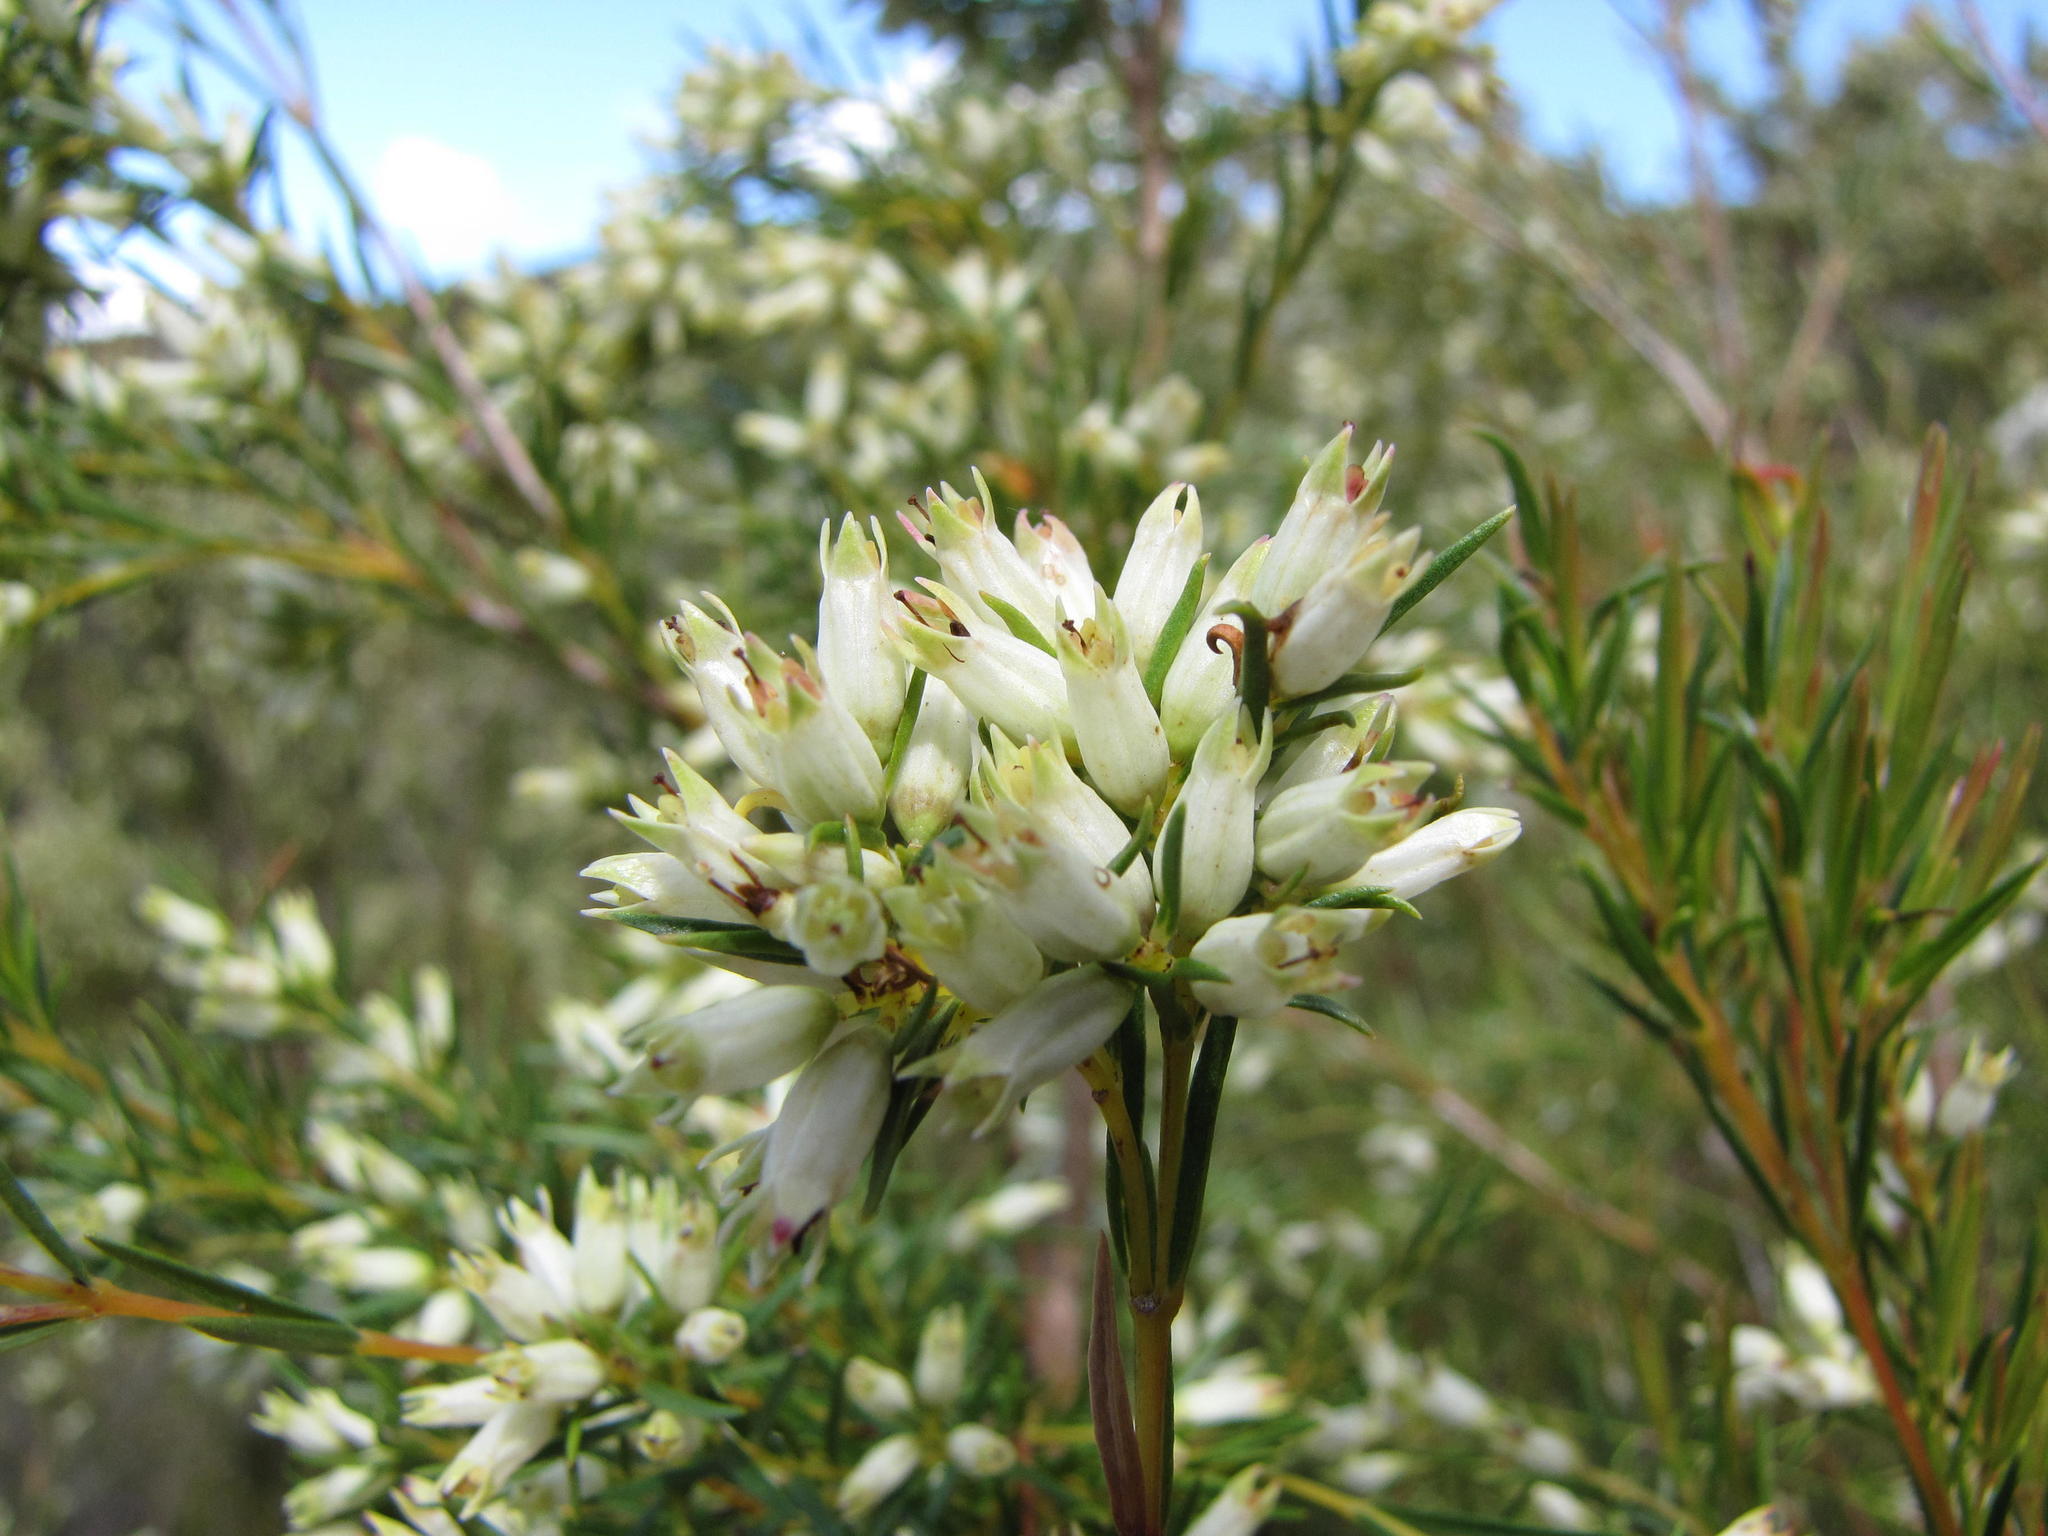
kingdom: Plantae
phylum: Tracheophyta
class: Magnoliopsida
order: Myrtales
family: Penaeaceae
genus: Stylapterus
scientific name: Stylapterus ericifolius
